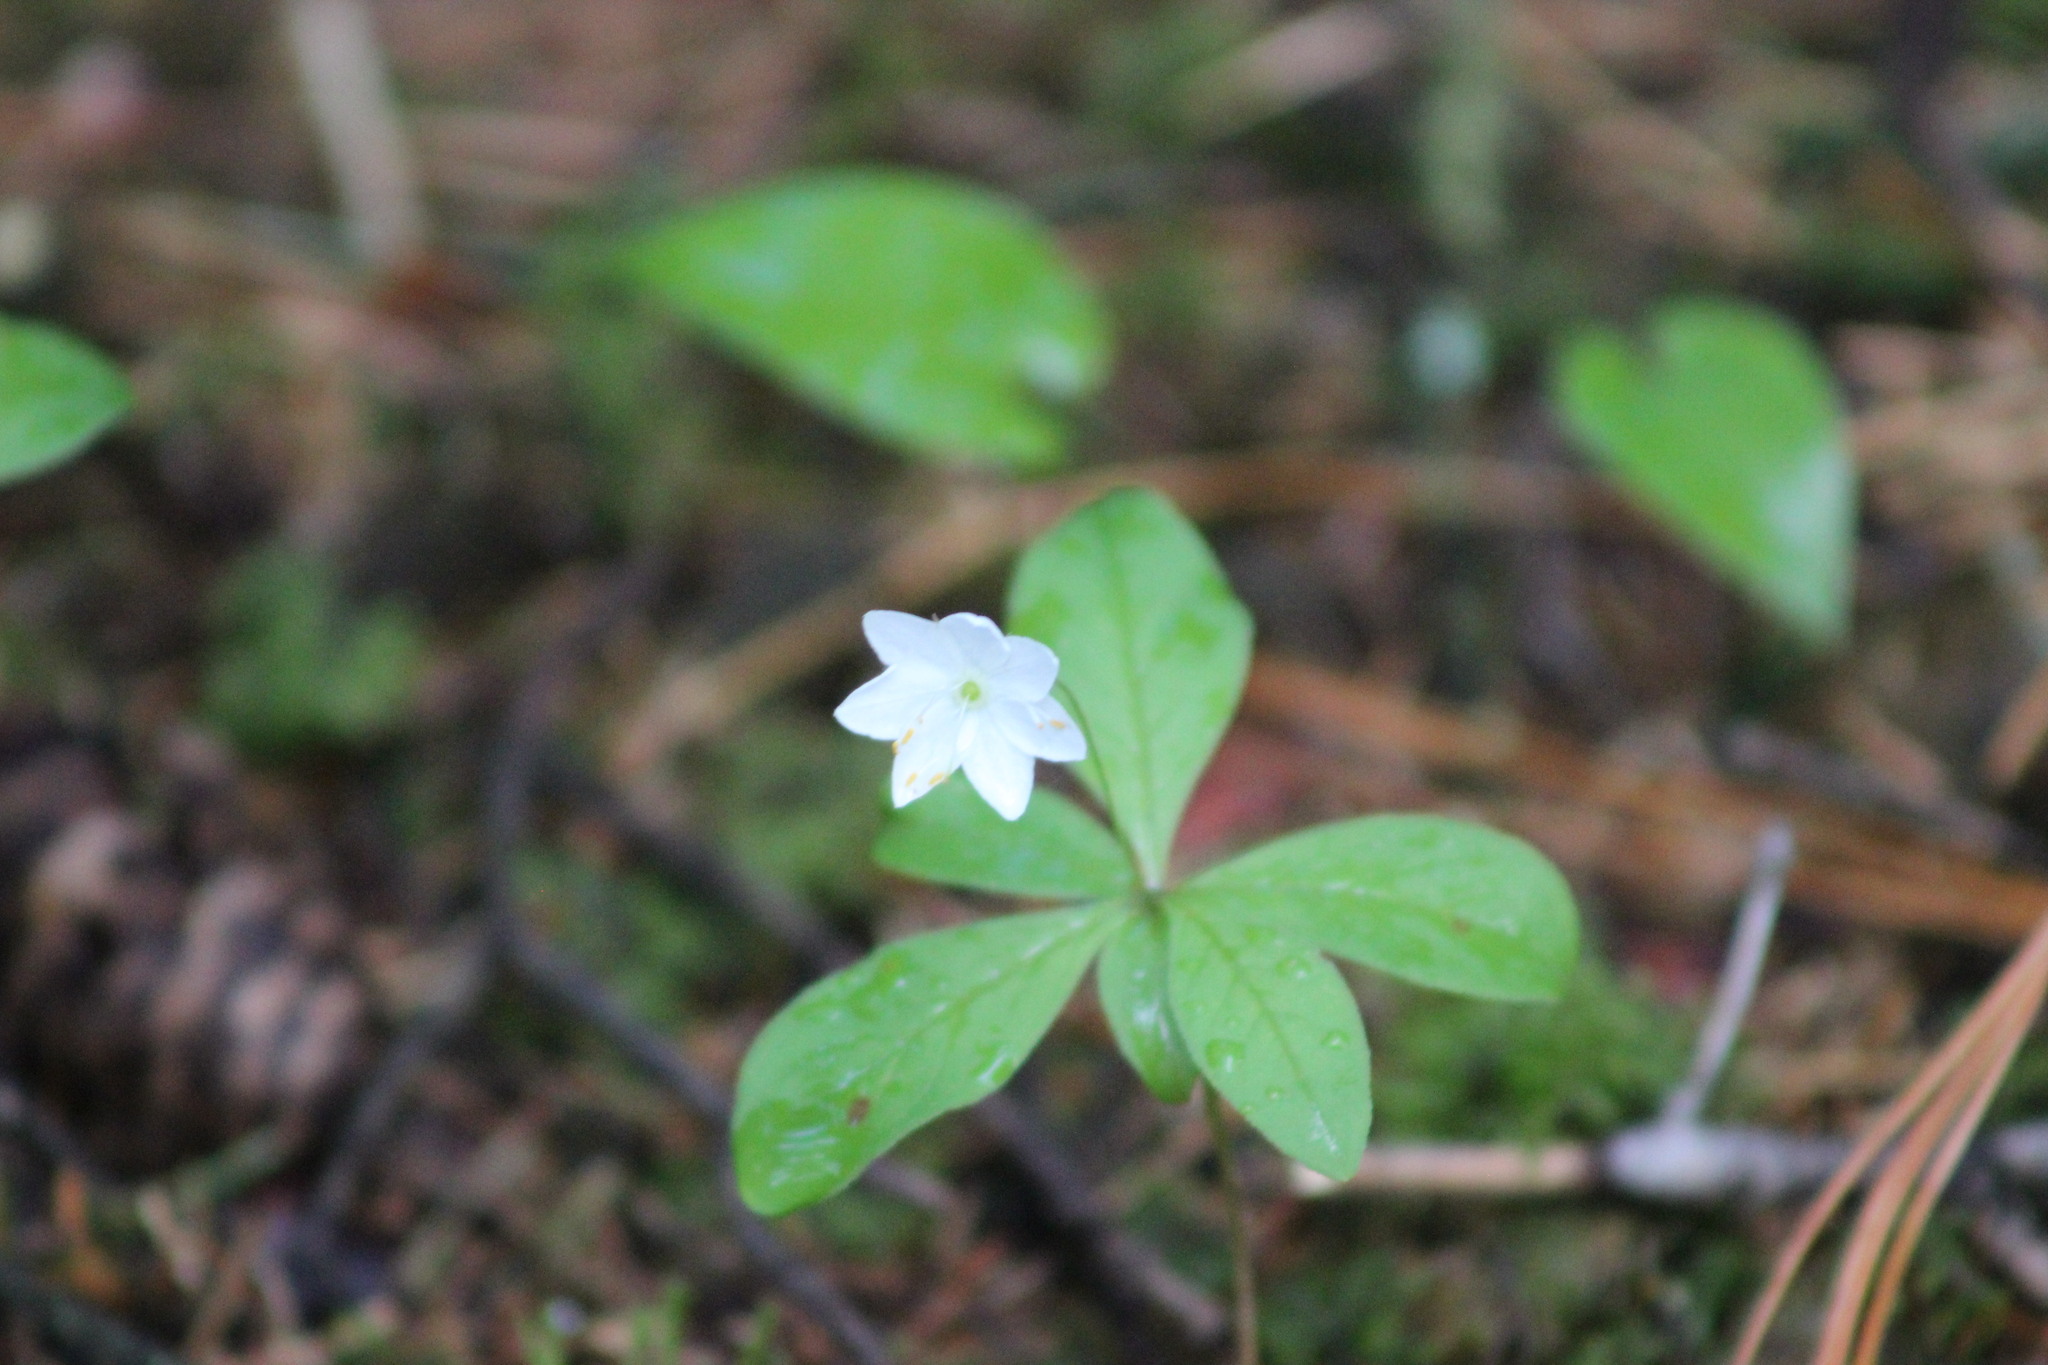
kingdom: Plantae
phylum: Tracheophyta
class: Magnoliopsida
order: Ericales
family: Primulaceae
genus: Lysimachia
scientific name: Lysimachia europaea
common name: Arctic starflower
